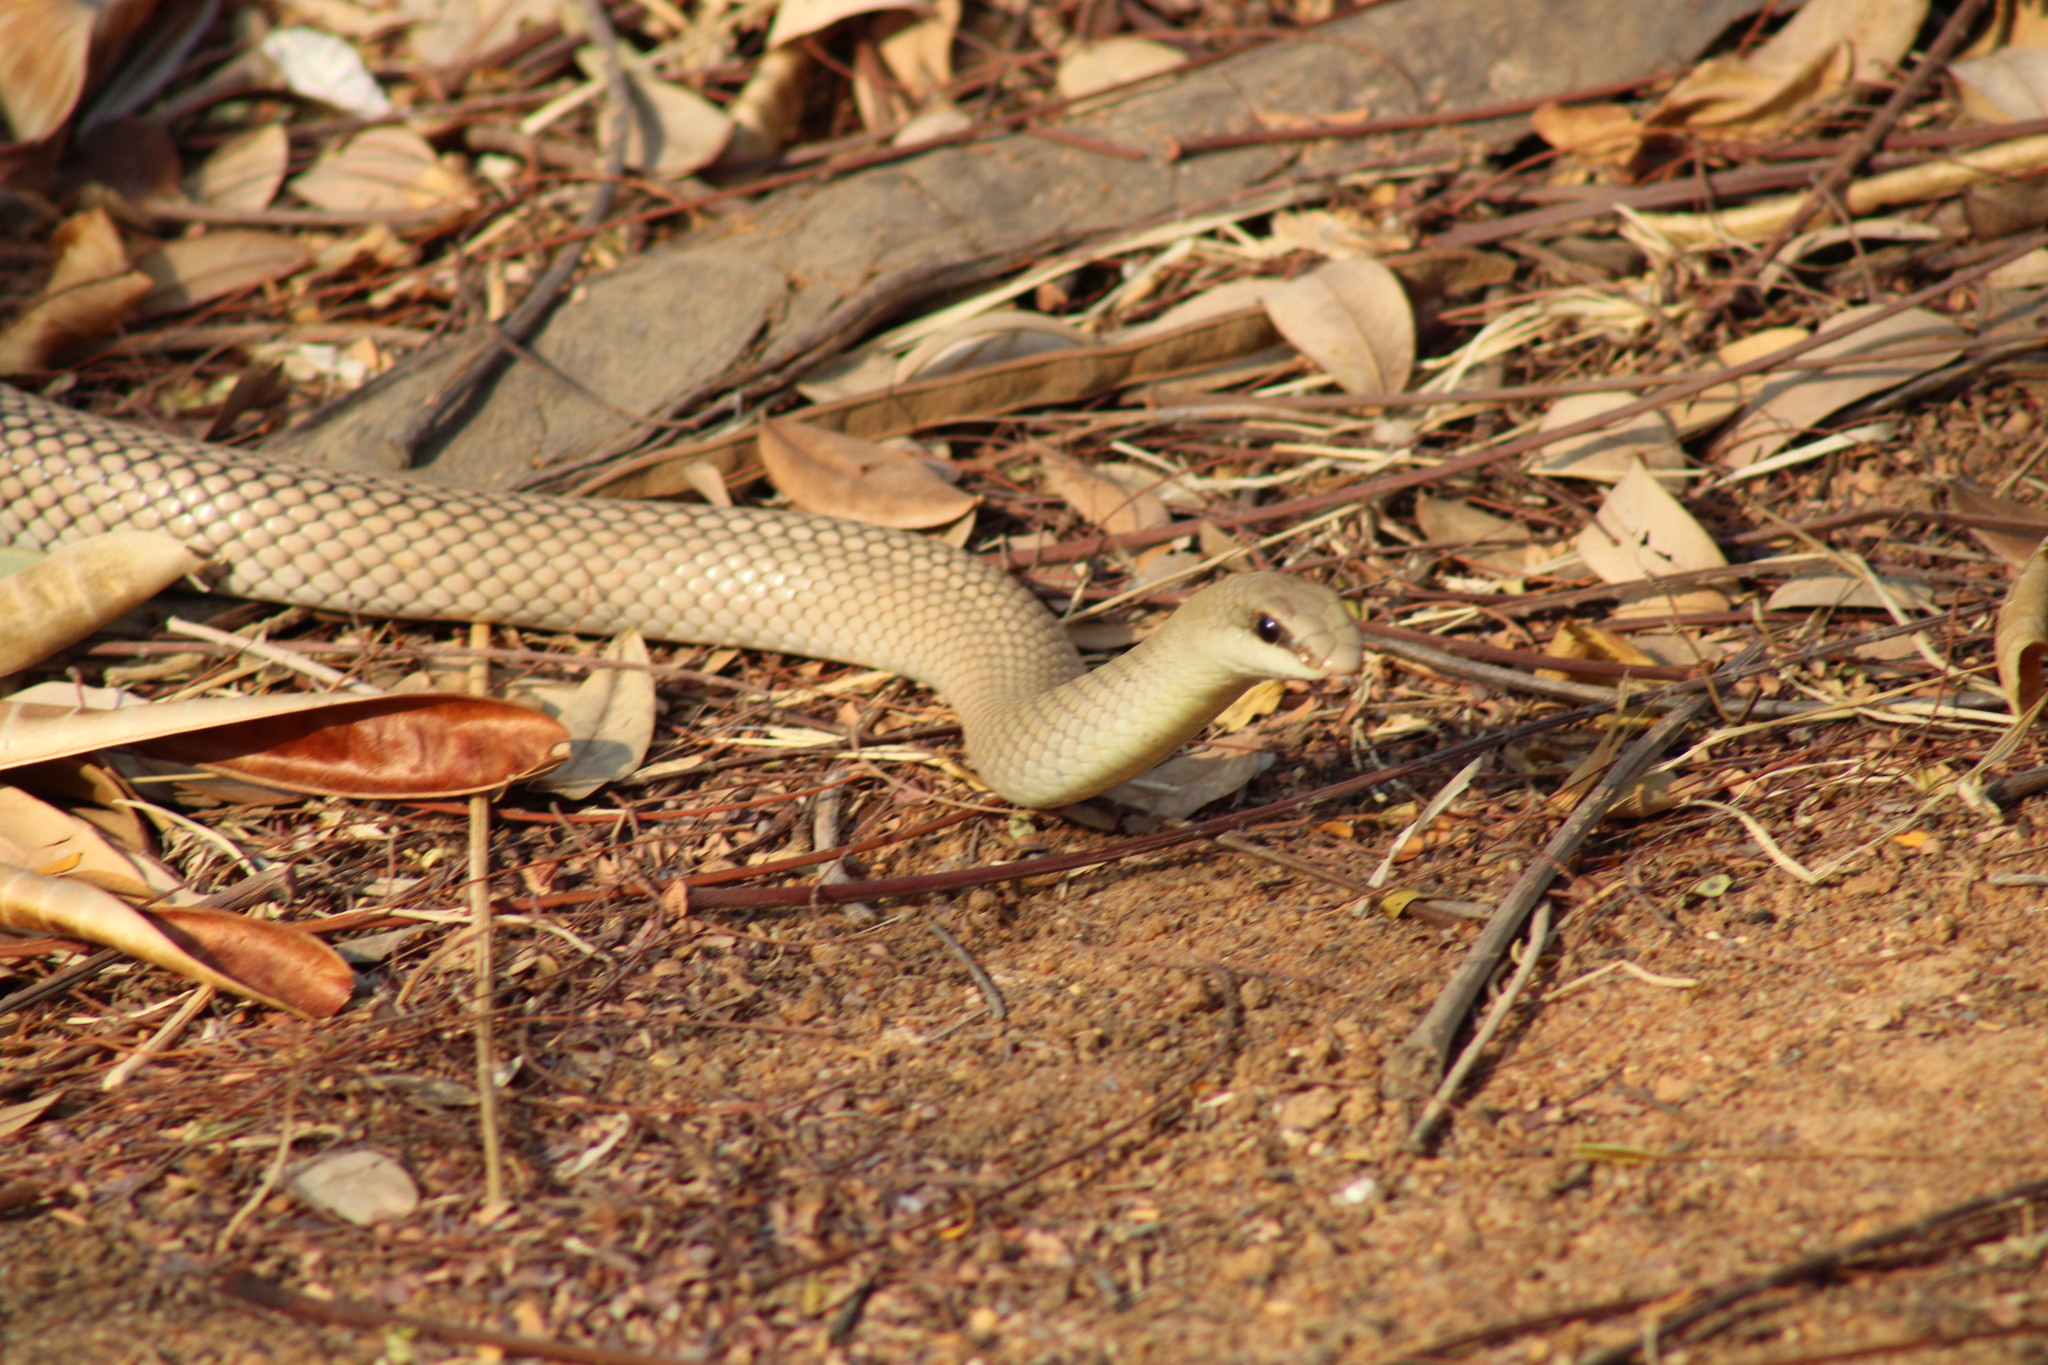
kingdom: Animalia
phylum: Chordata
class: Squamata
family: Psammophiidae
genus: Rhamphiophis
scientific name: Rhamphiophis rostratus
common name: Rufous beaked snake
